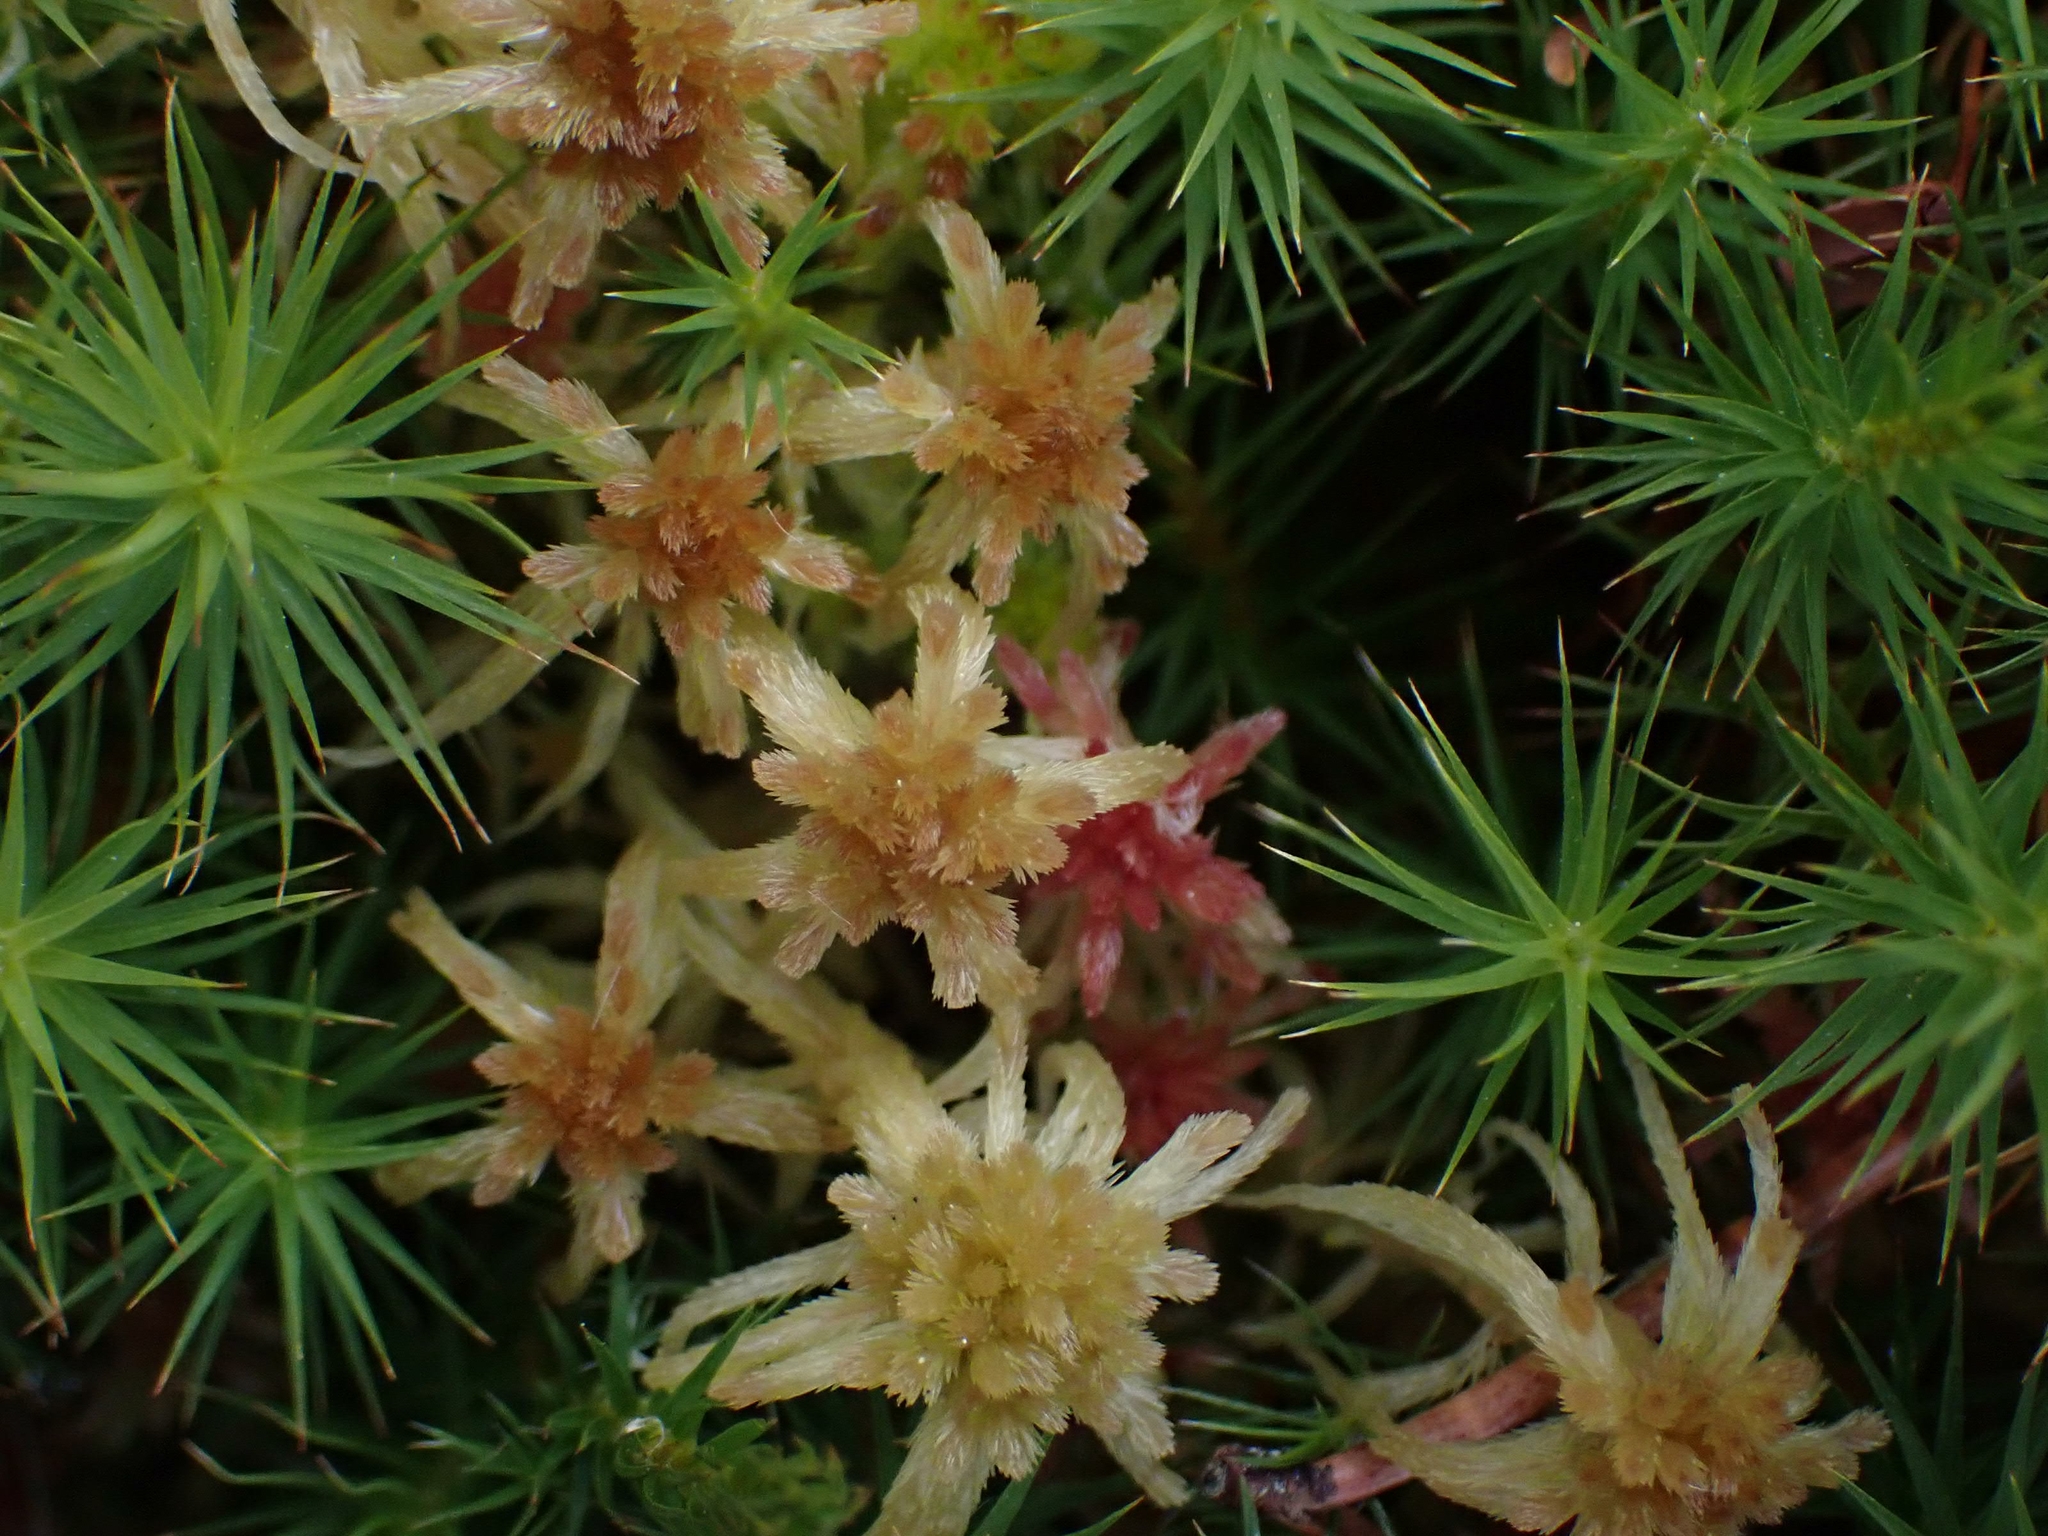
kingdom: Plantae
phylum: Bryophyta
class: Sphagnopsida
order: Sphagnales
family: Sphagnaceae
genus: Sphagnum
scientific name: Sphagnum angustifolium
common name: Narrow-leaved peat moss
